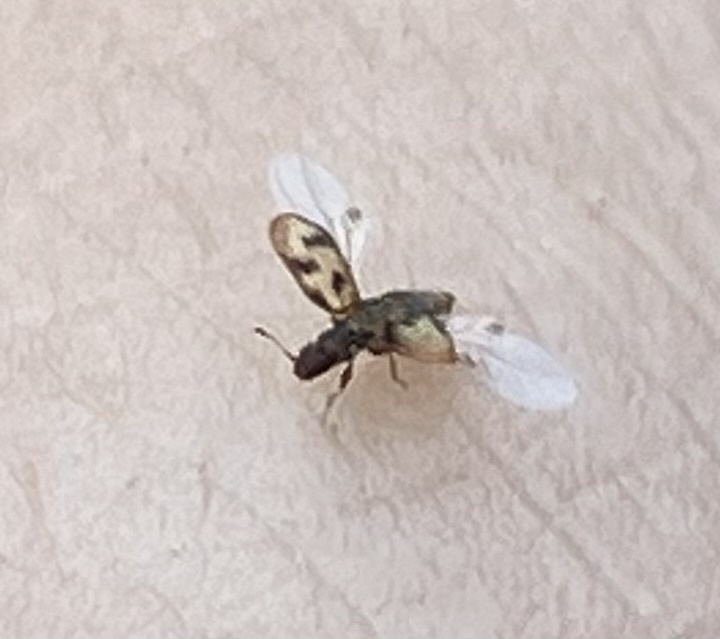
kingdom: Animalia
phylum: Arthropoda
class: Insecta
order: Coleoptera
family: Latridiidae
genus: Cartodere
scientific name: Cartodere bifasciata
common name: Plaster beetle
